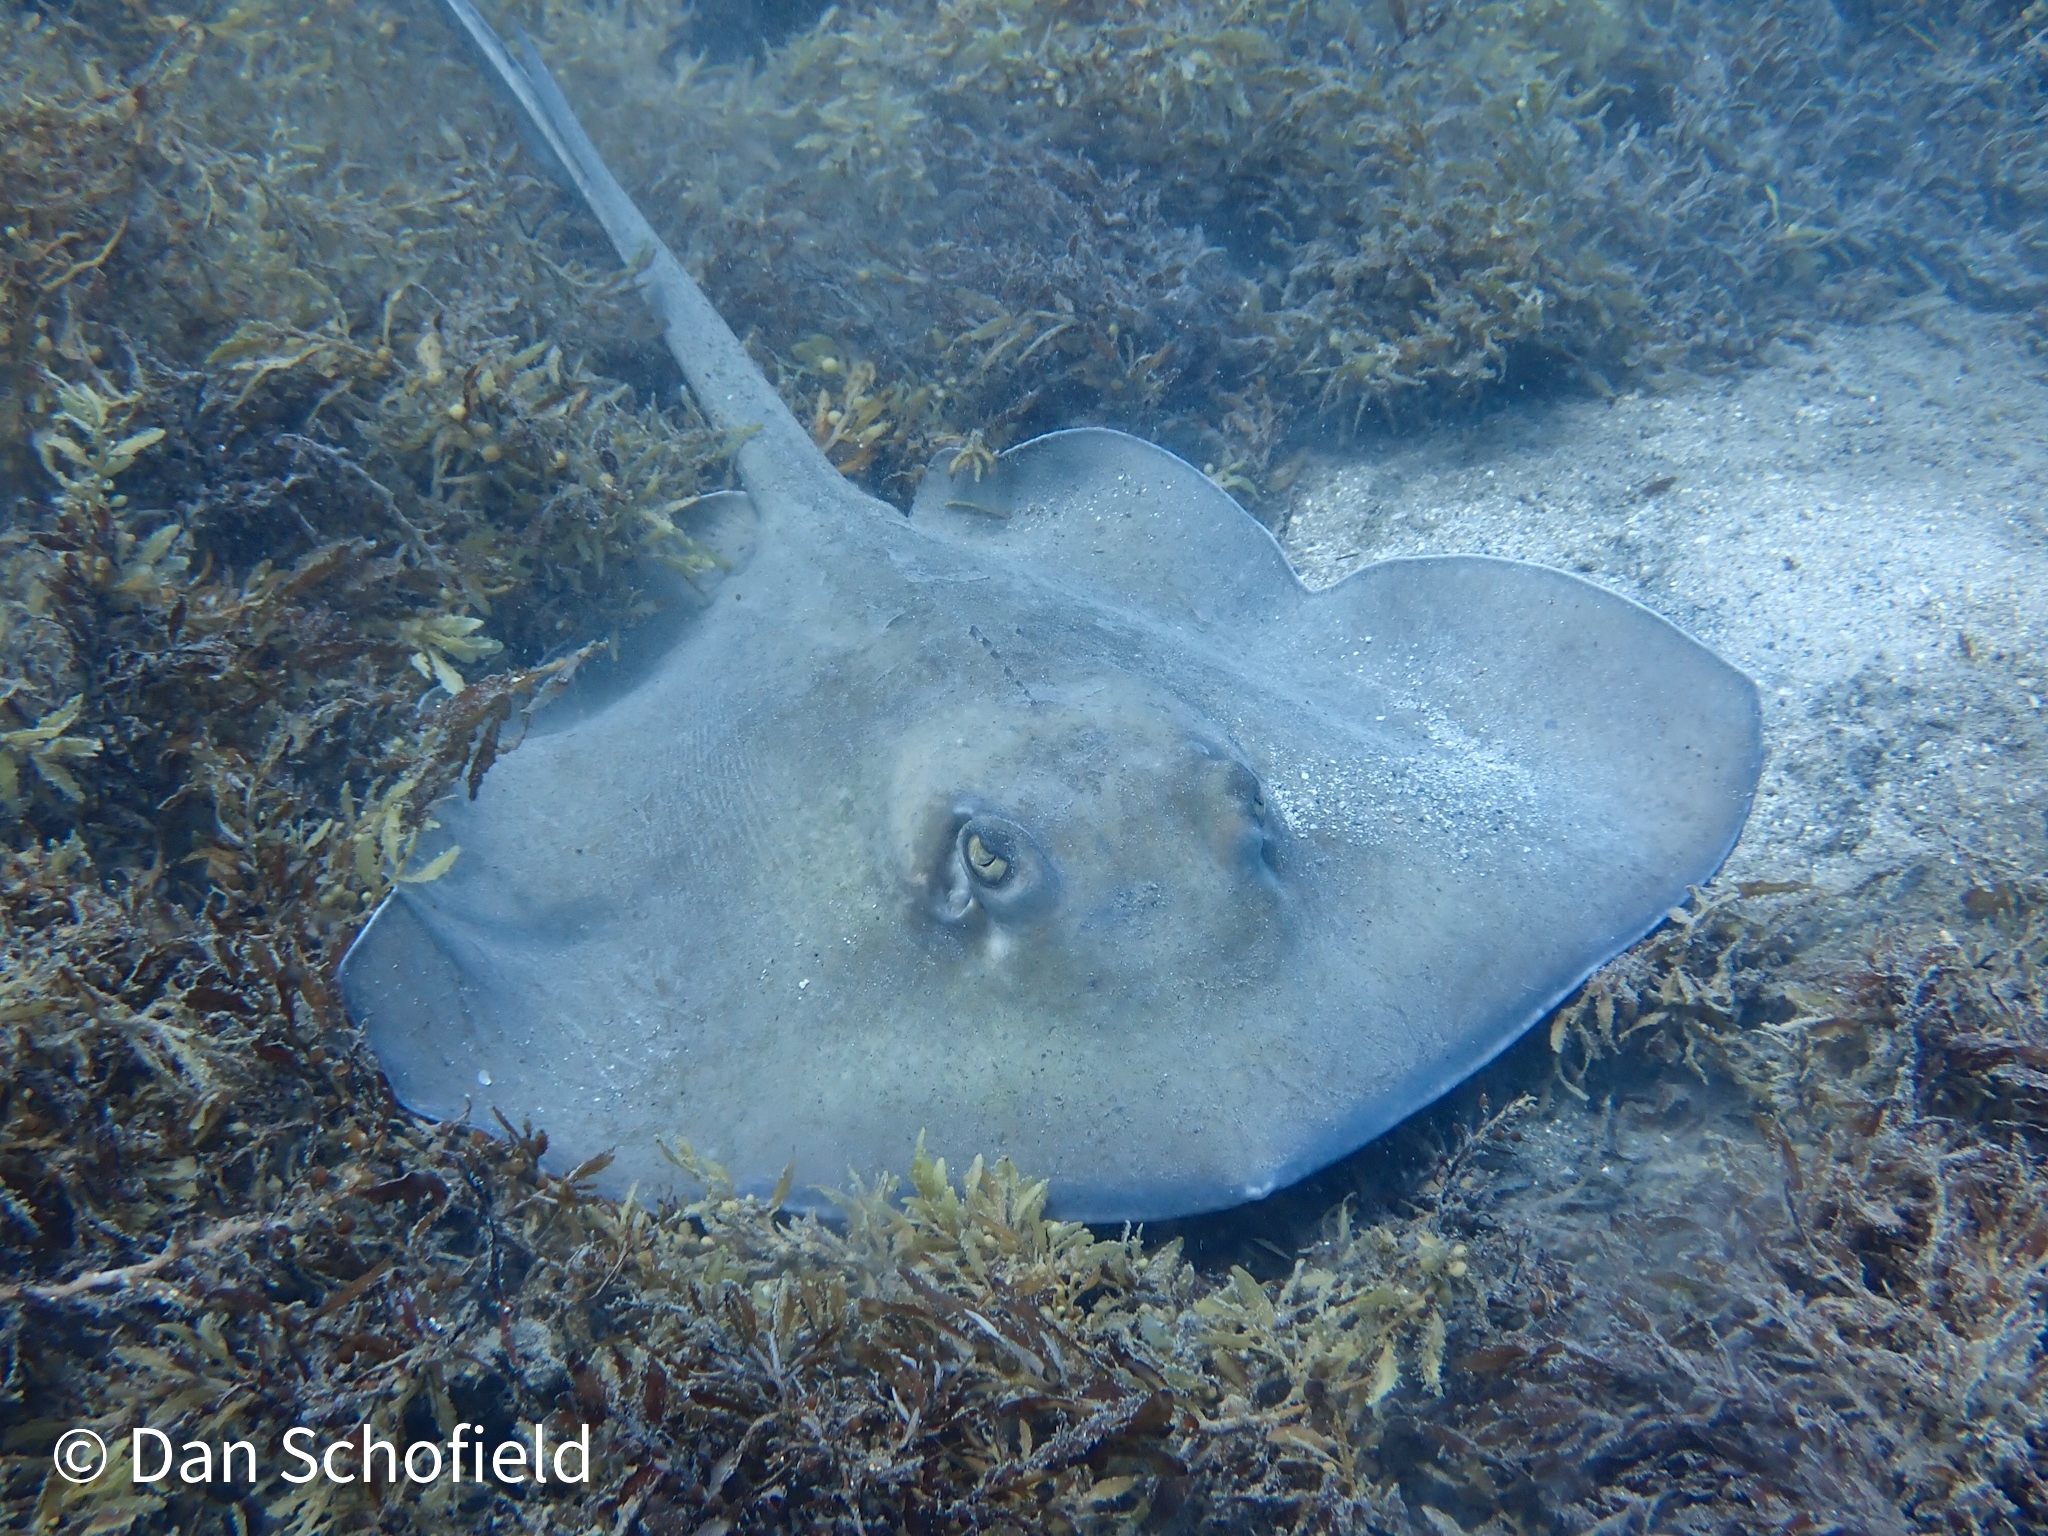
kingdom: Animalia
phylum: Chordata
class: Elasmobranchii
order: Myliobatiformes
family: Dasyatidae
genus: Hypanus
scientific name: Hypanus americanus
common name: Southern stingray
